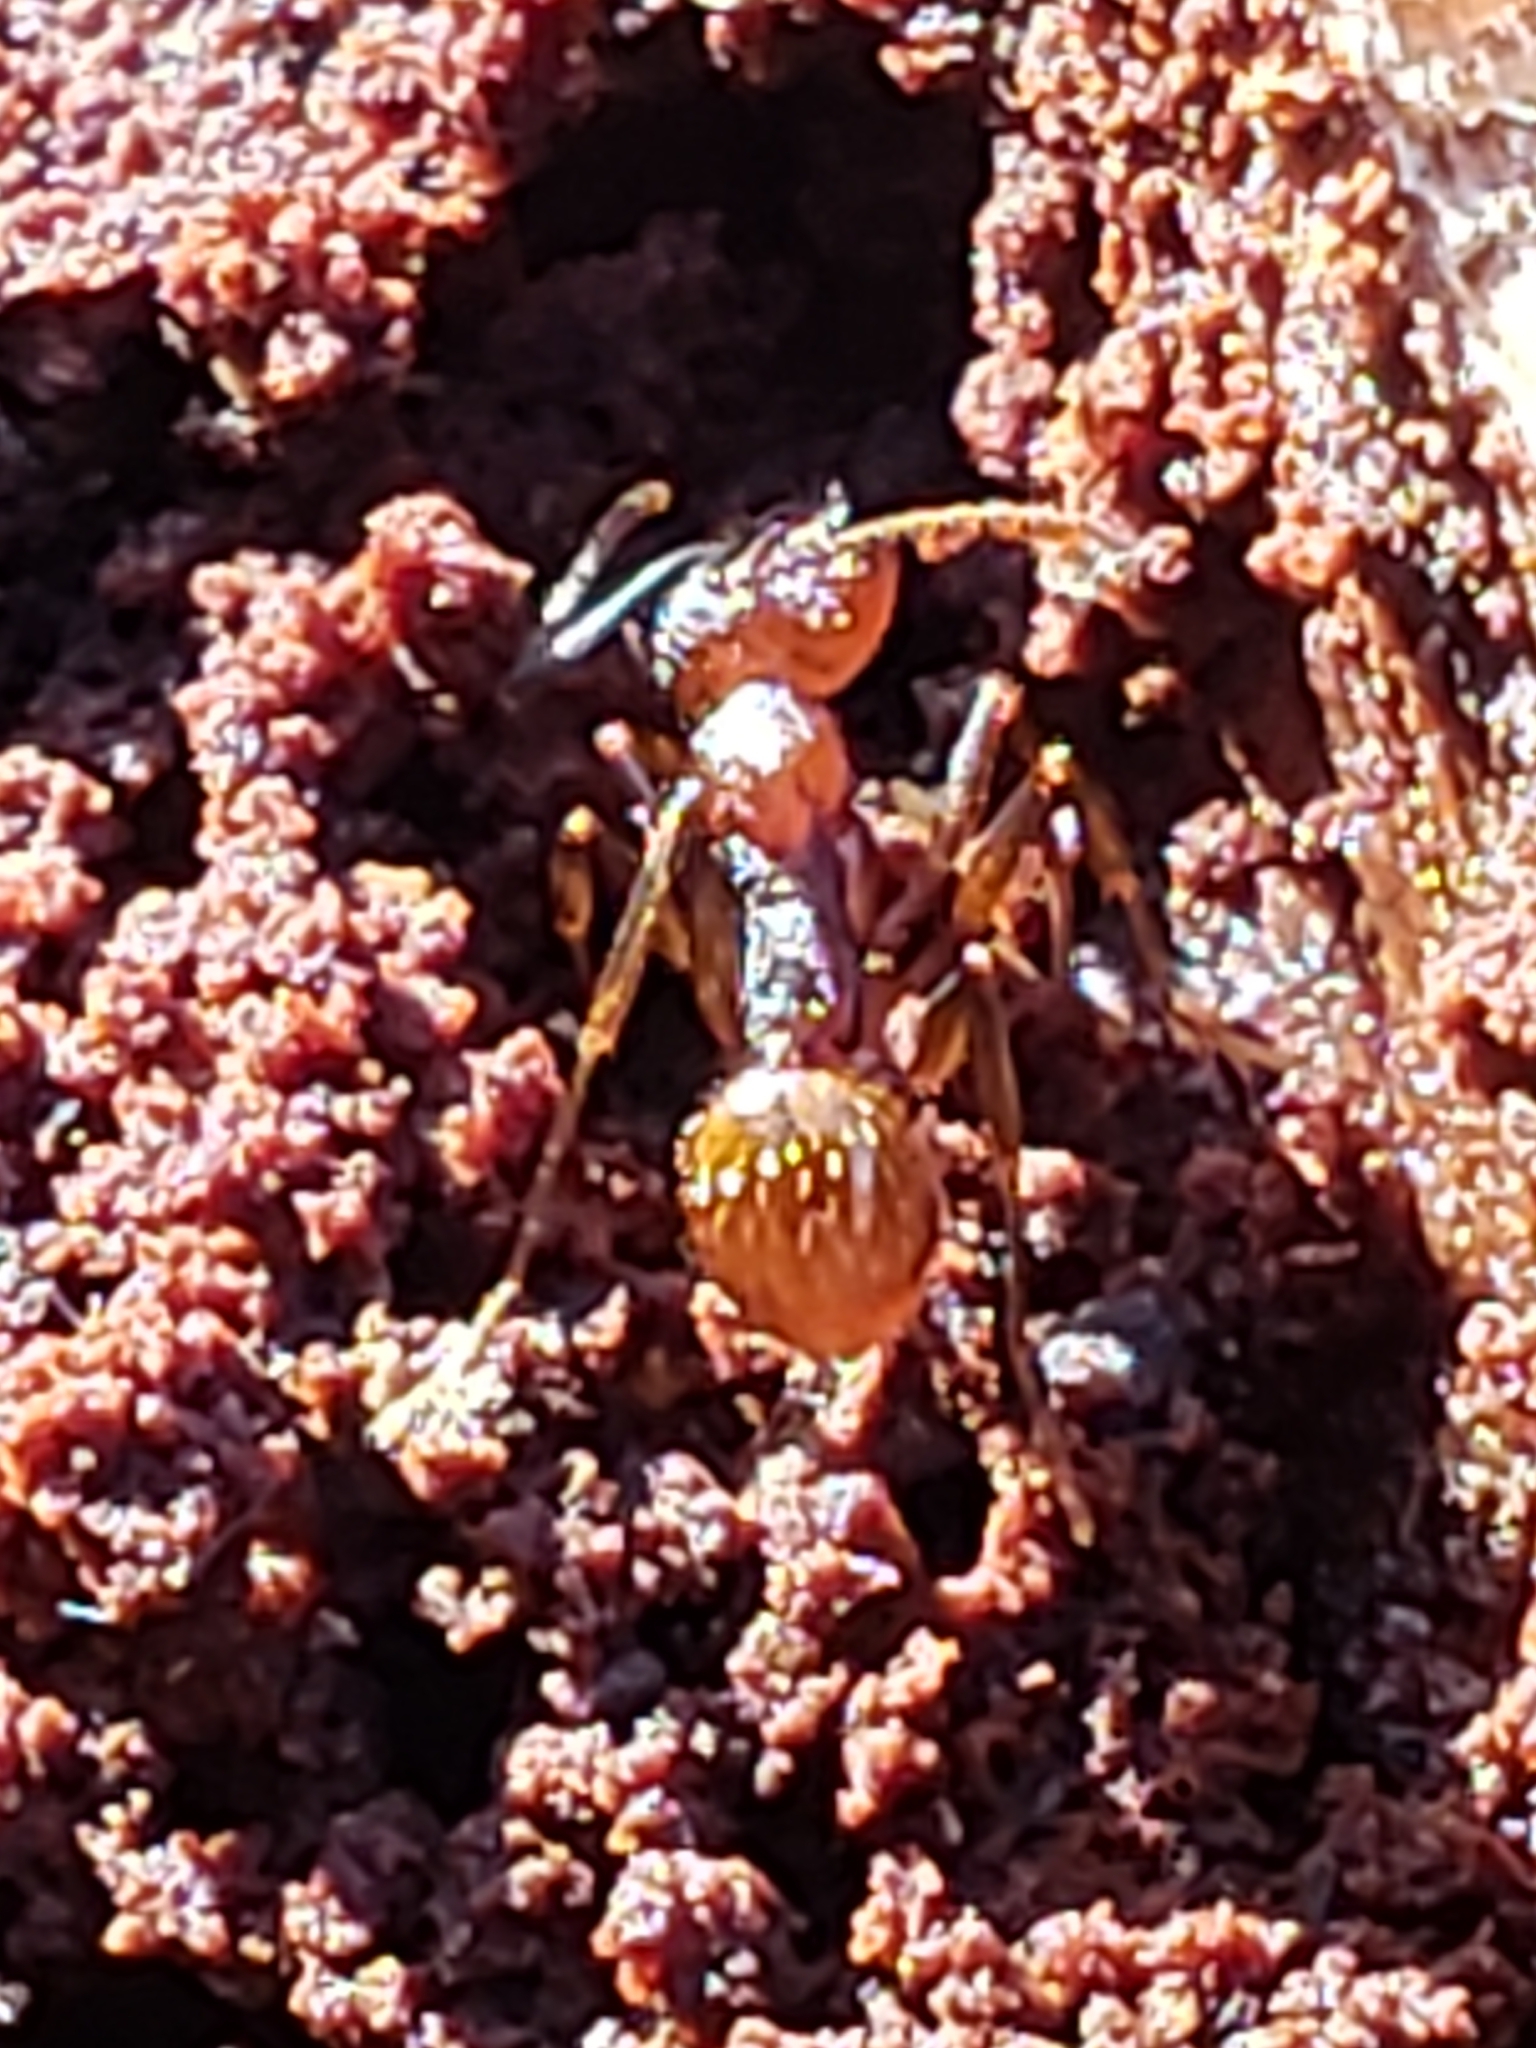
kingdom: Animalia
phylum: Arthropoda
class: Insecta
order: Hymenoptera
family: Formicidae
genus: Aphaenogaster
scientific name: Aphaenogaster fulva
